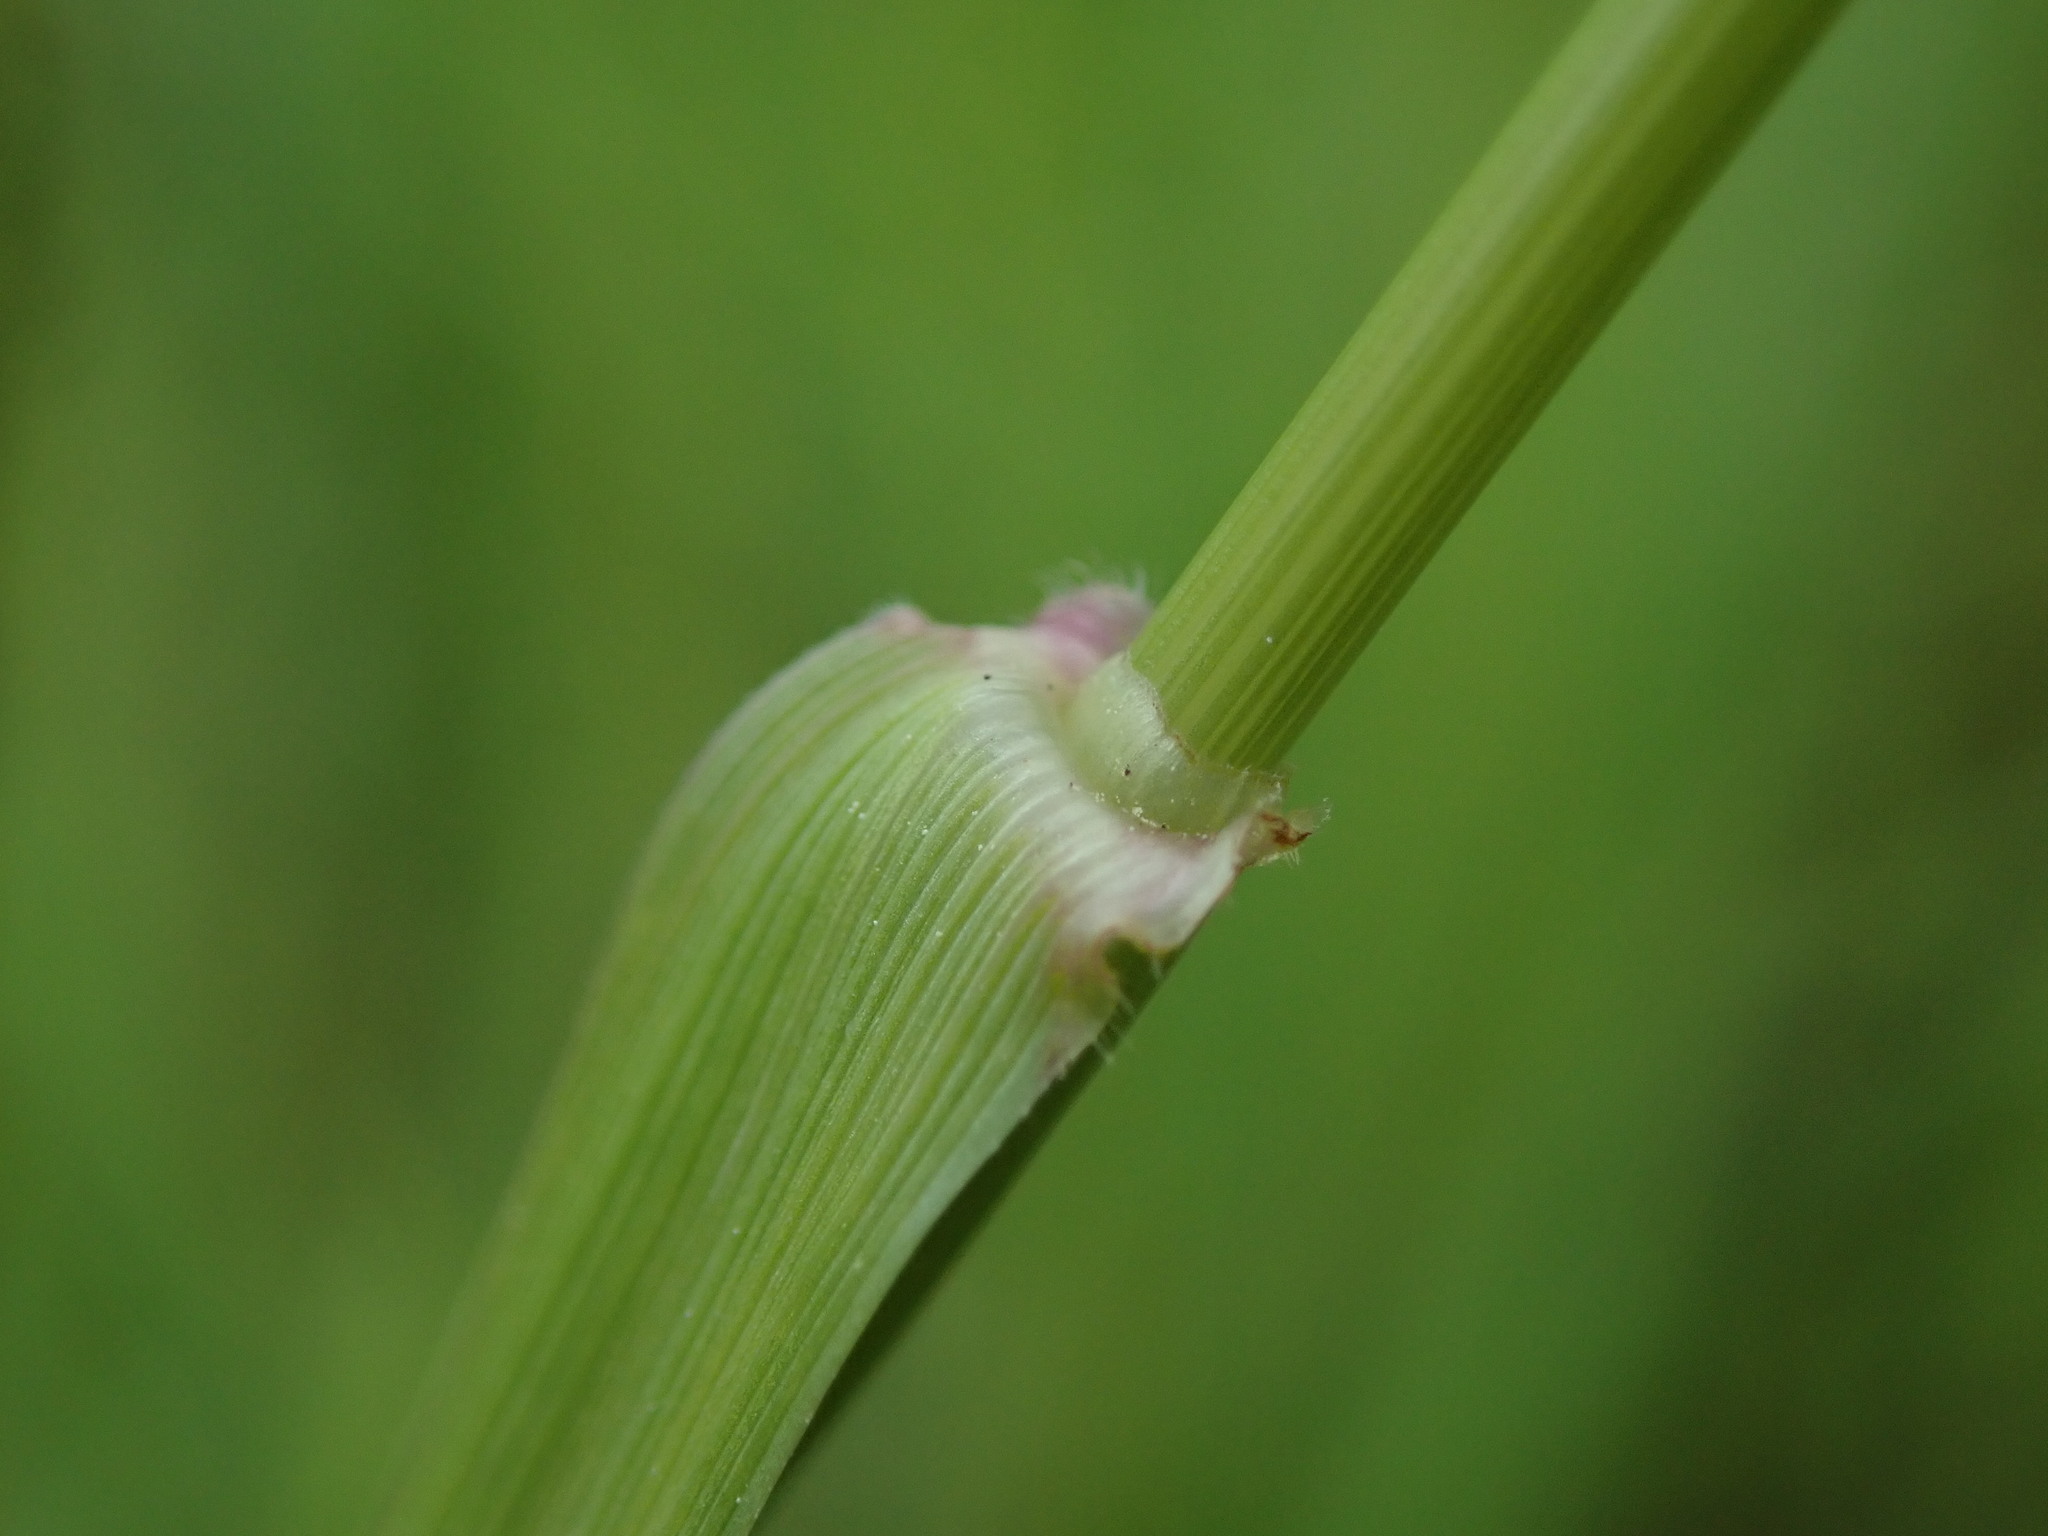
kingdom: Plantae
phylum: Tracheophyta
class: Liliopsida
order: Poales
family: Poaceae
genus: Poa
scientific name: Poa pratensis
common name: Kentucky bluegrass
